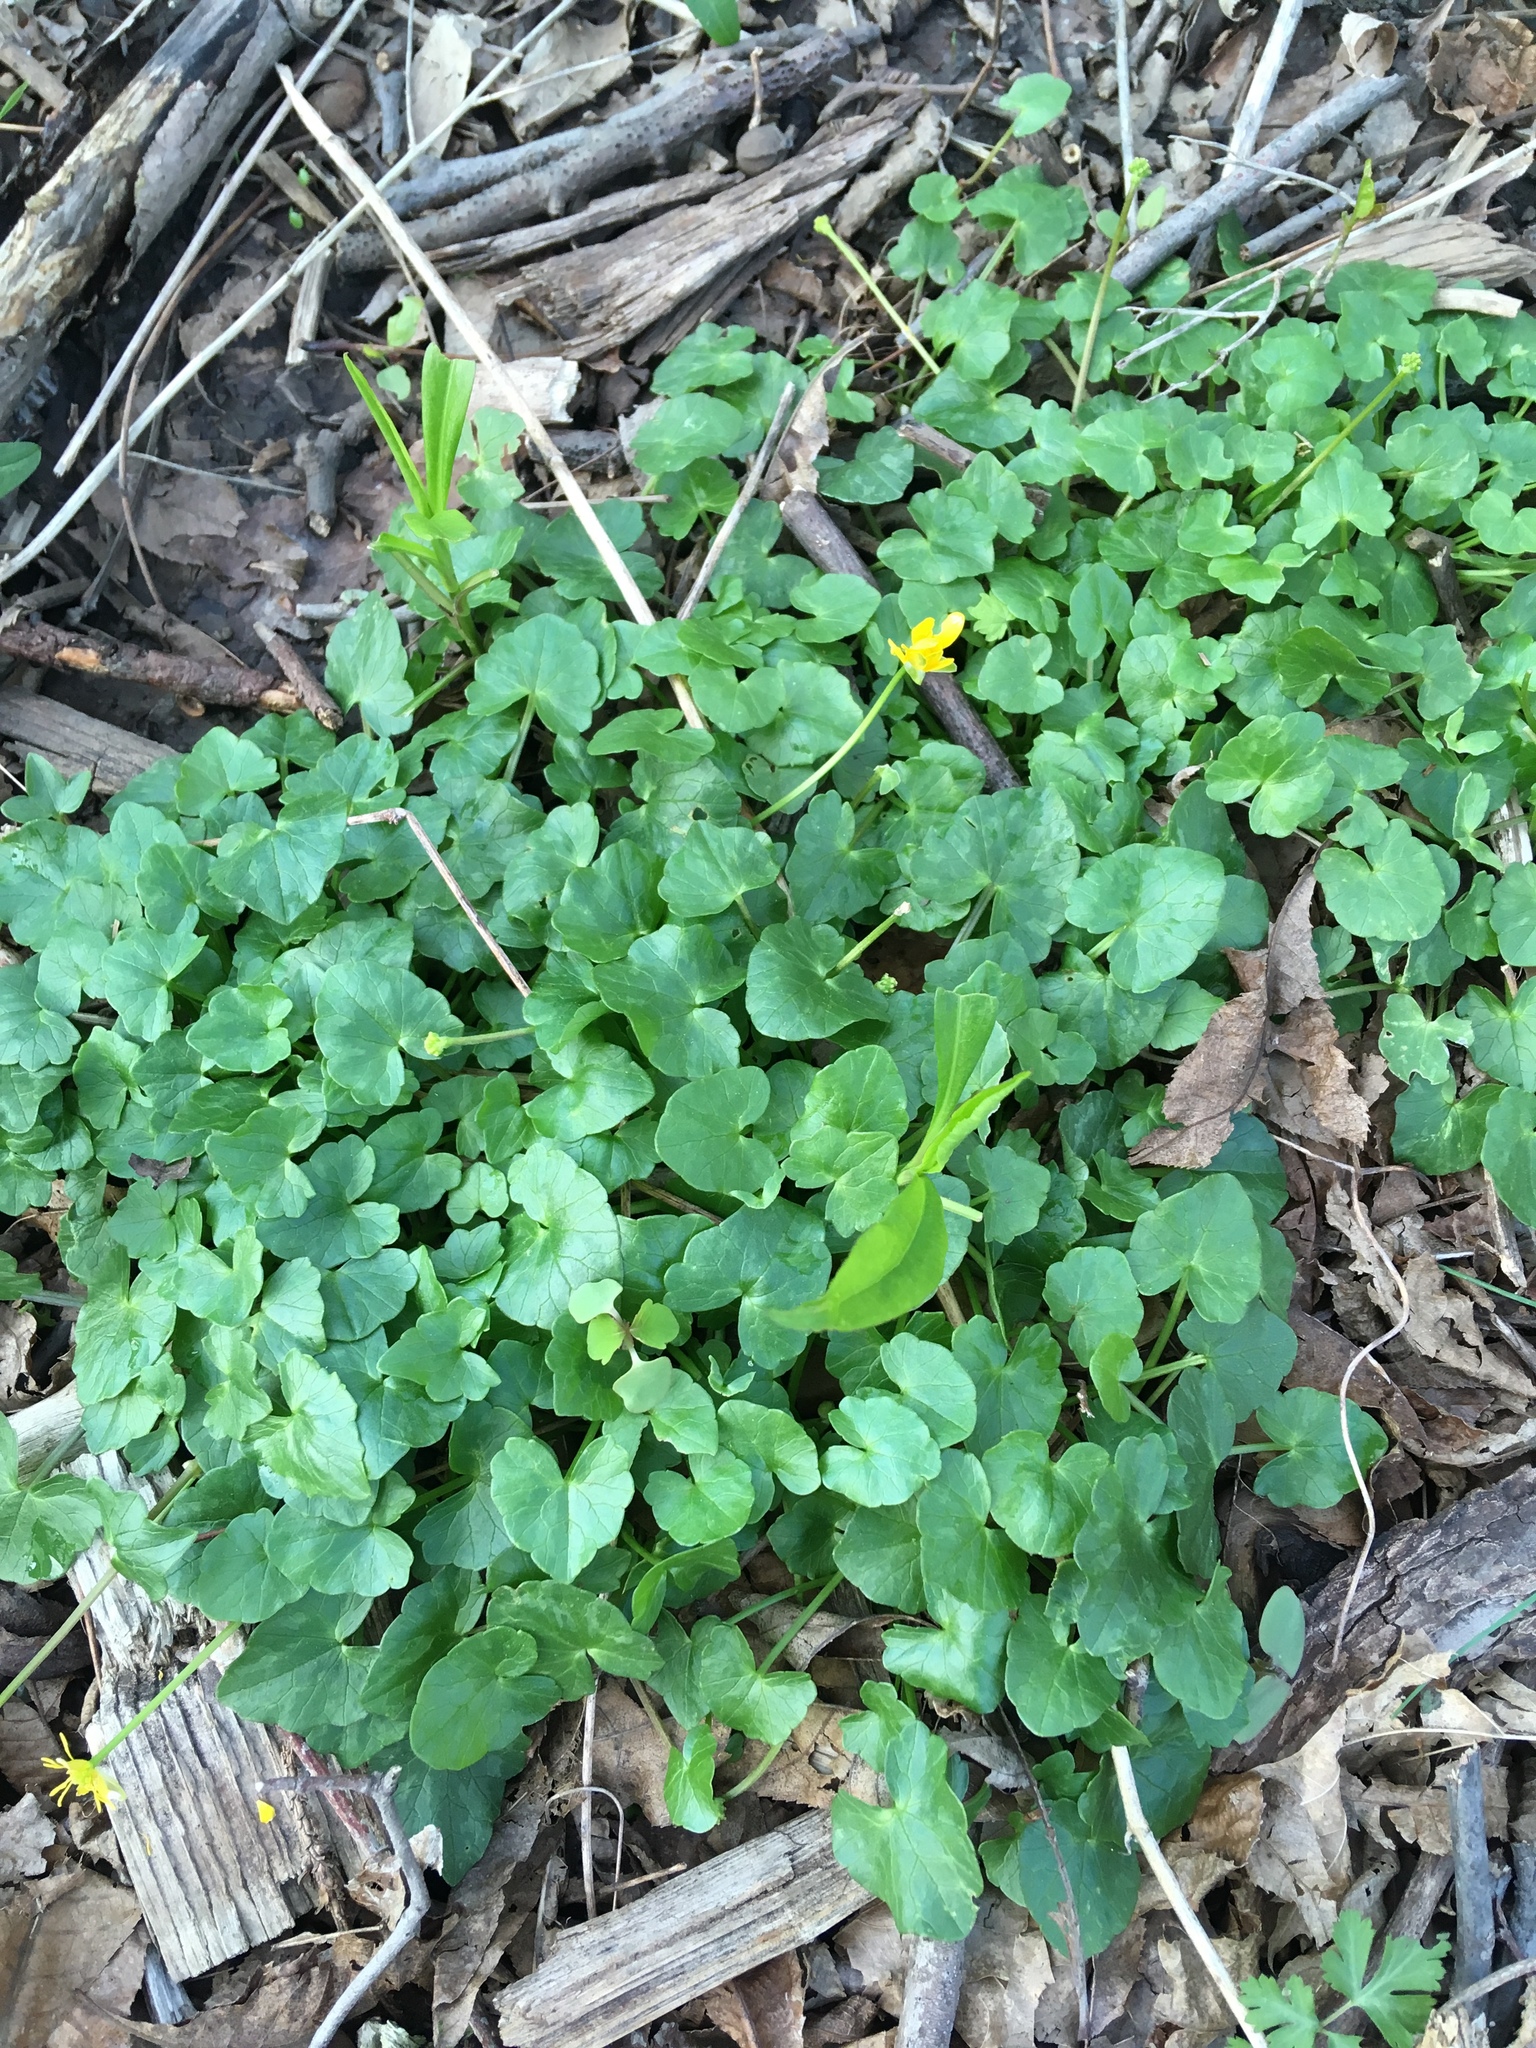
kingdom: Plantae
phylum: Tracheophyta
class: Magnoliopsida
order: Ranunculales
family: Ranunculaceae
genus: Ficaria
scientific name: Ficaria verna
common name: Lesser celandine
